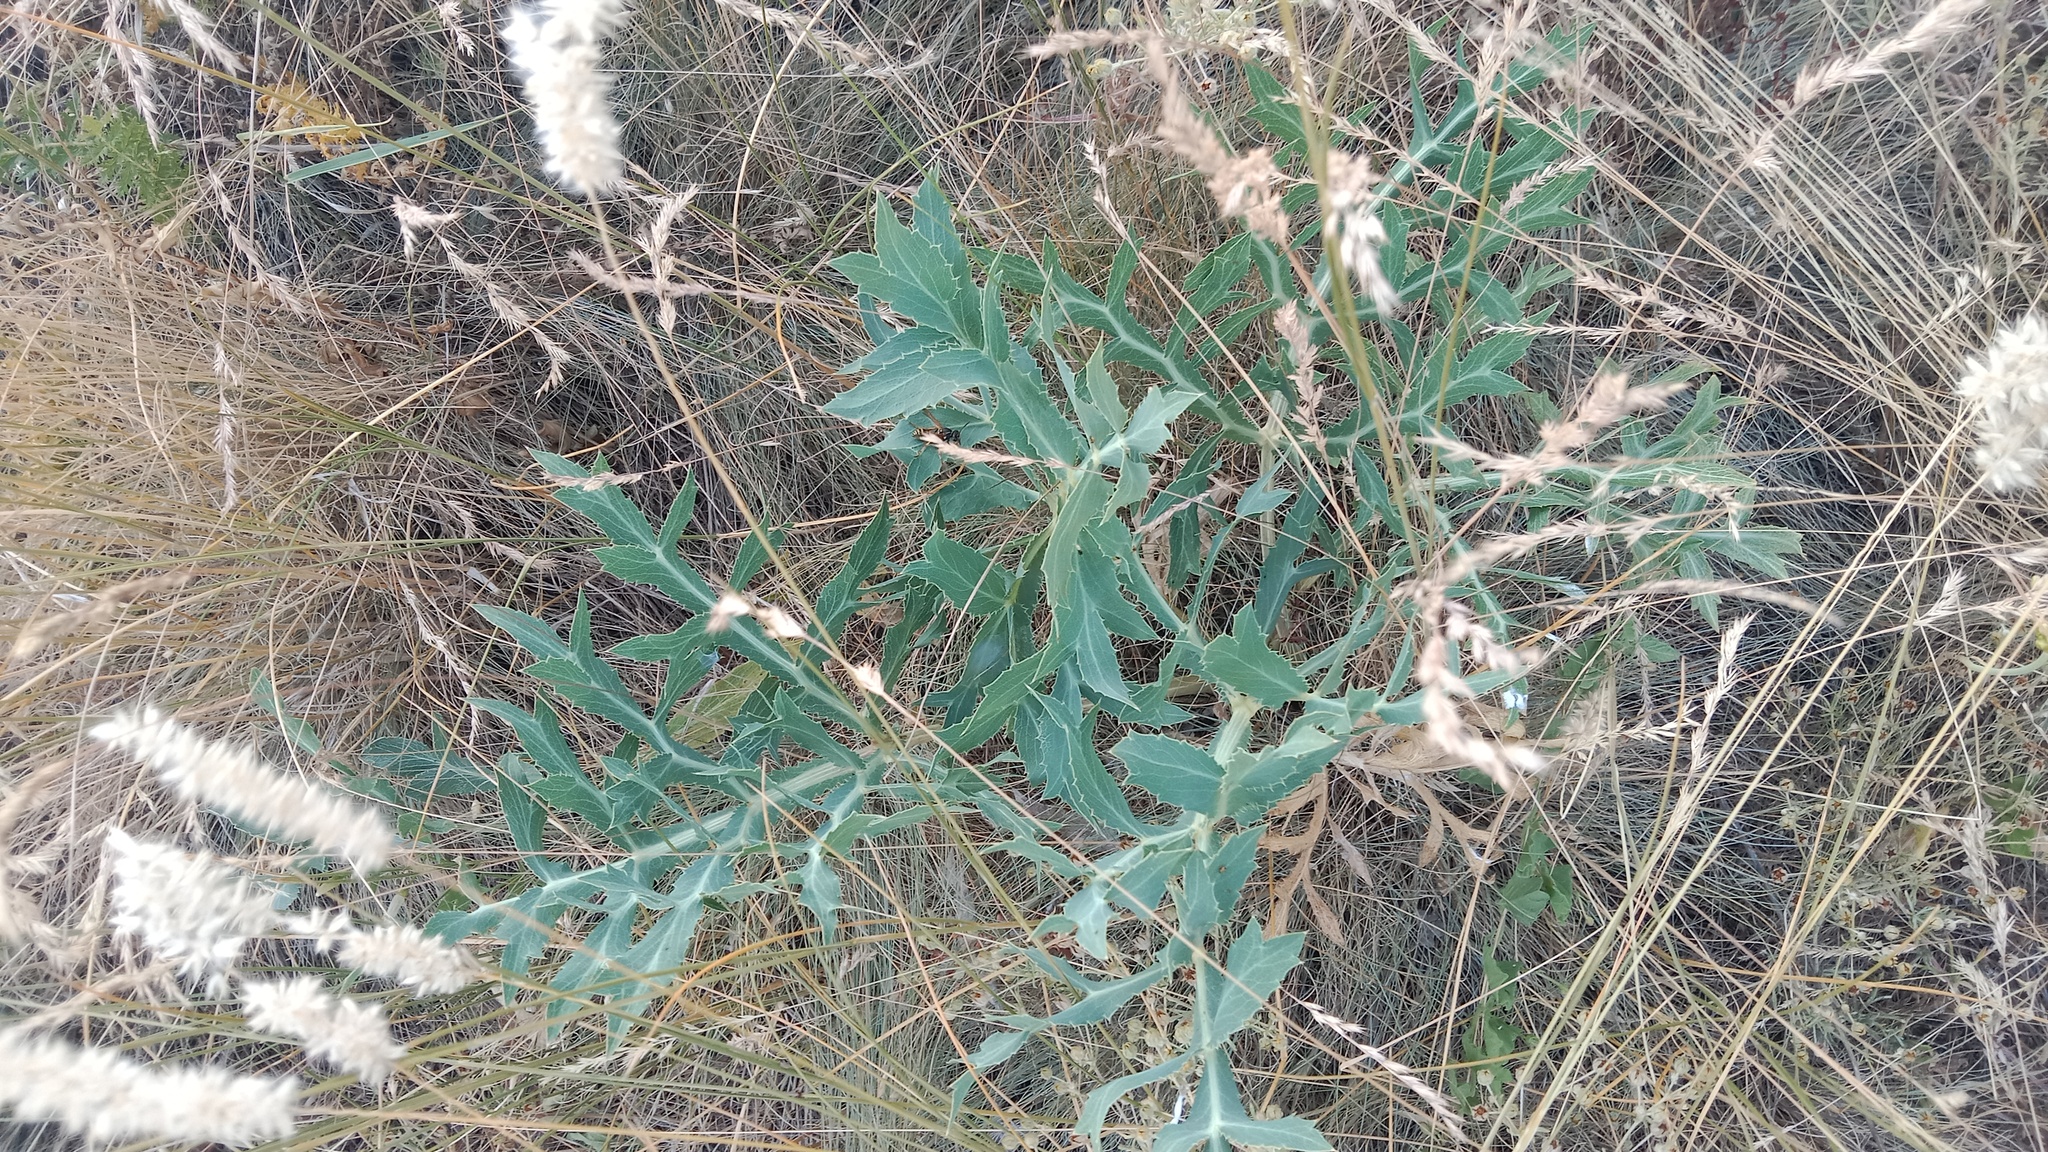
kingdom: Plantae
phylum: Tracheophyta
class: Magnoliopsida
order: Apiales
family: Apiaceae
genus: Eryngium
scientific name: Eryngium campestre
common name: Field eryngo
